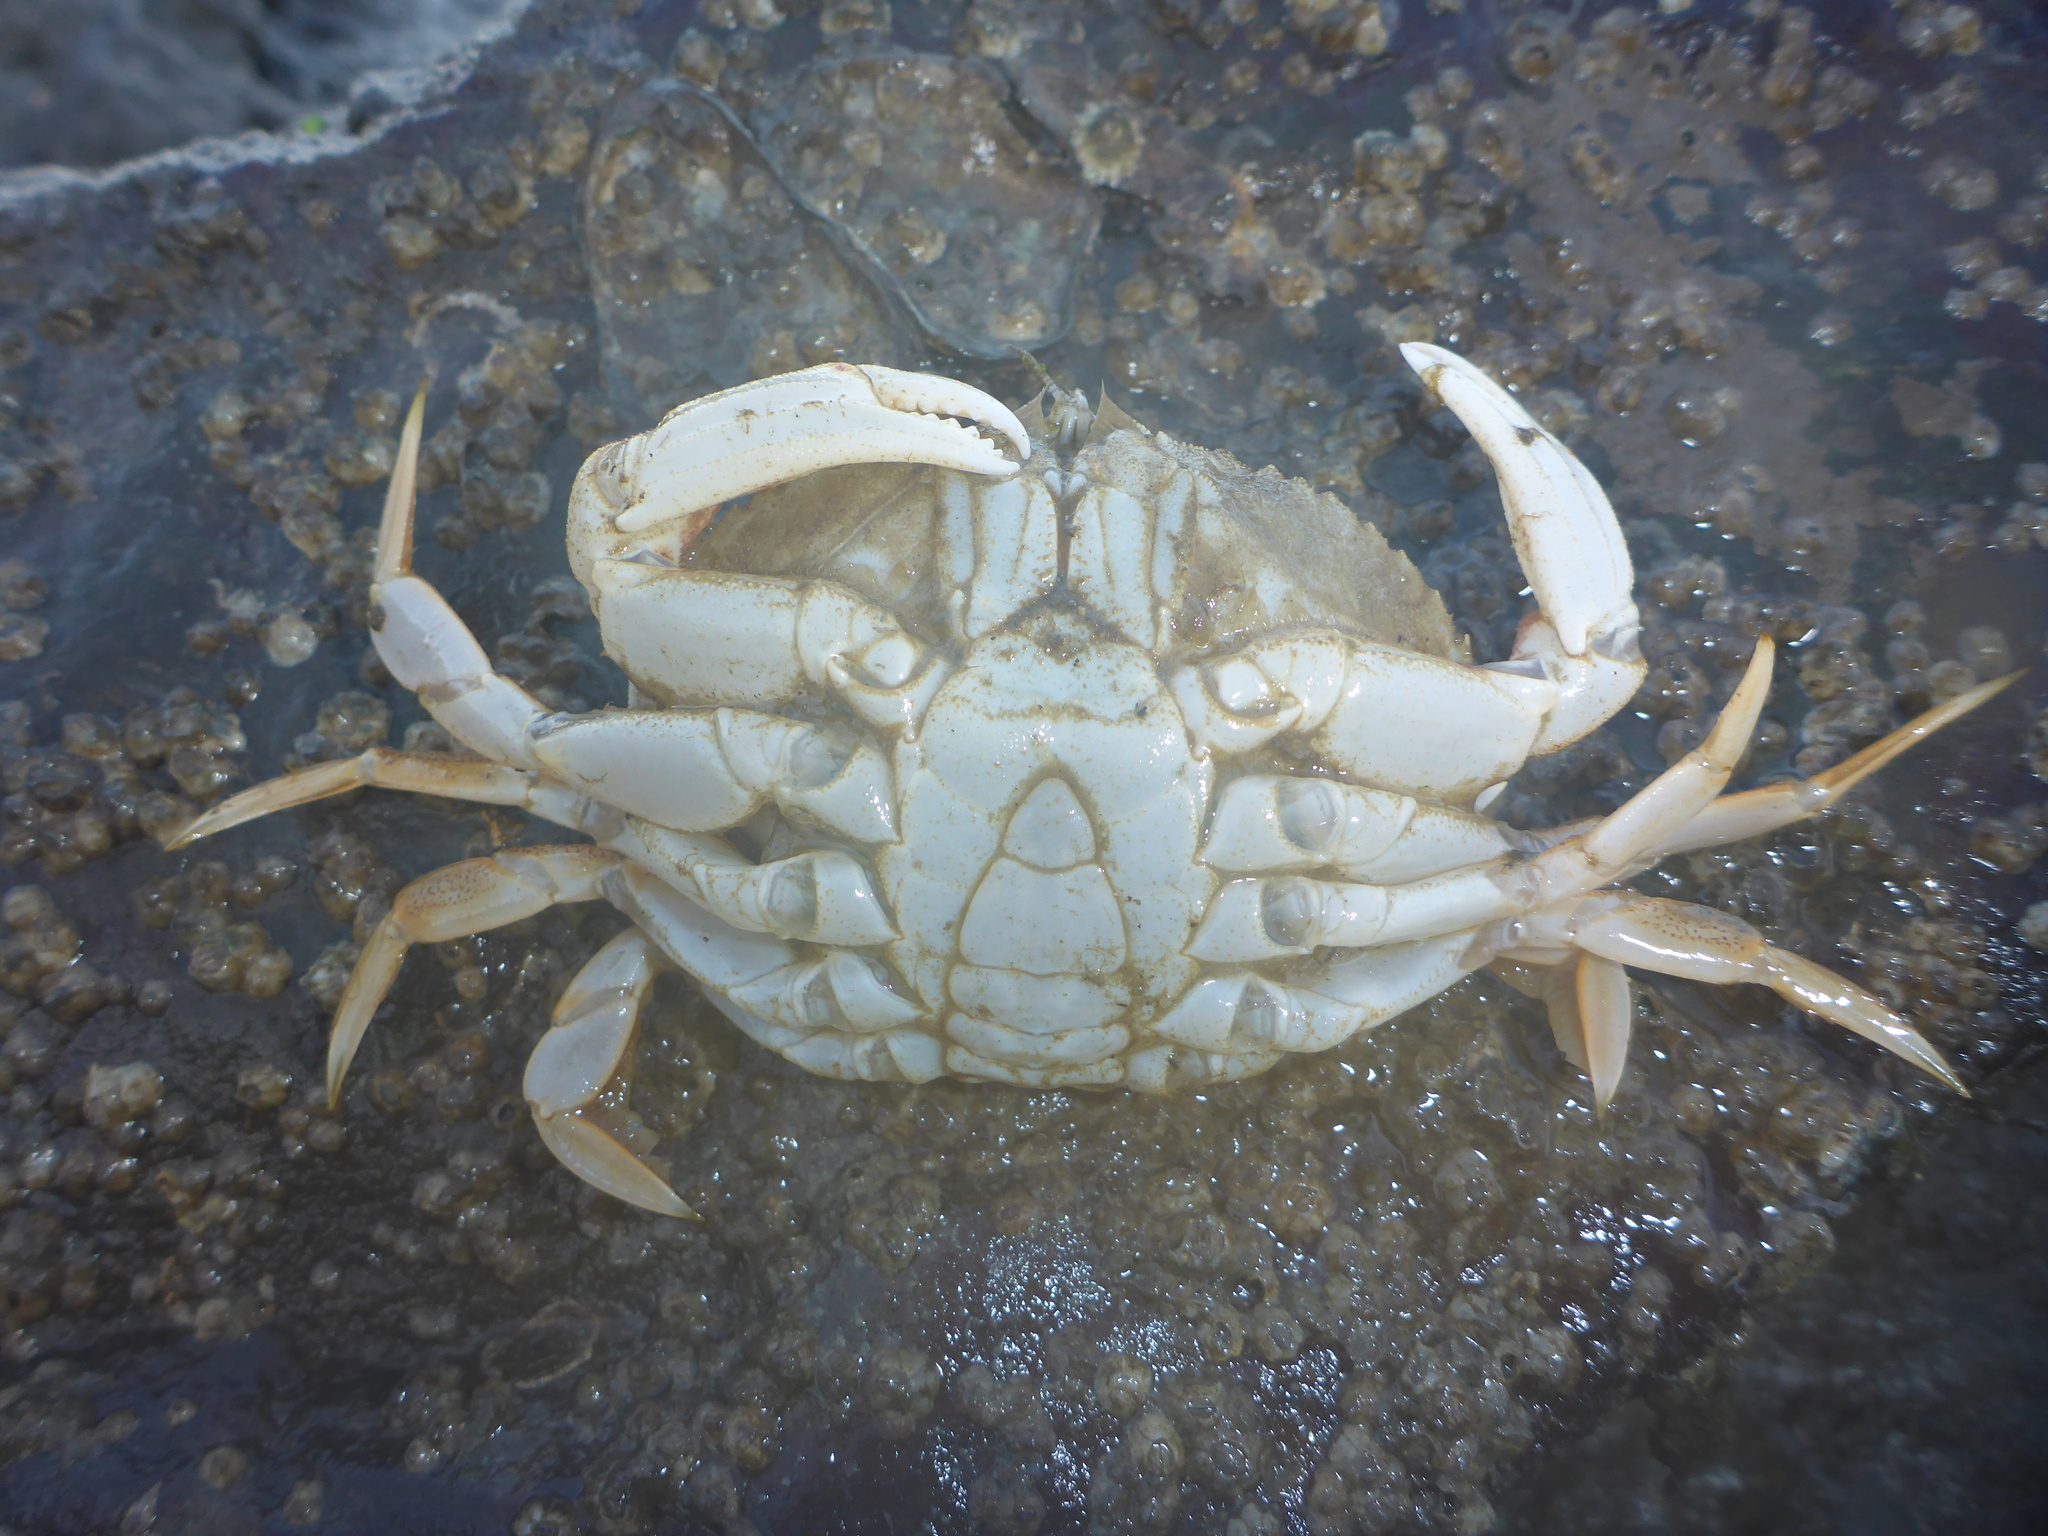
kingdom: Animalia
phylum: Arthropoda
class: Malacostraca
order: Decapoda
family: Cancridae
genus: Metacarcinus
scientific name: Metacarcinus magister
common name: Californian crab
